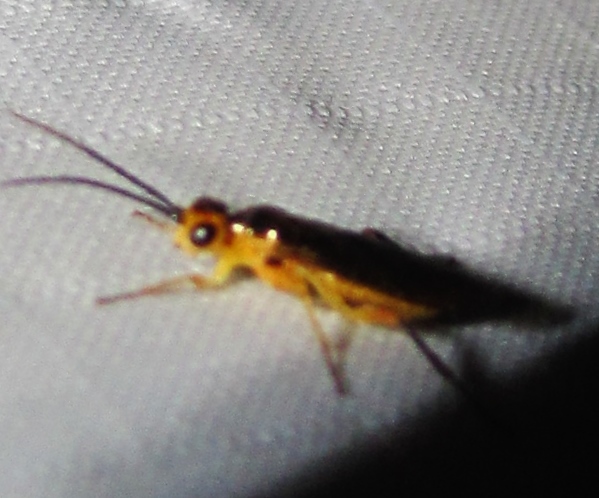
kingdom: Animalia
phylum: Arthropoda
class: Insecta
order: Hymenoptera
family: Tenthredinidae
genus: Euura
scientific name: Euura tibialis
